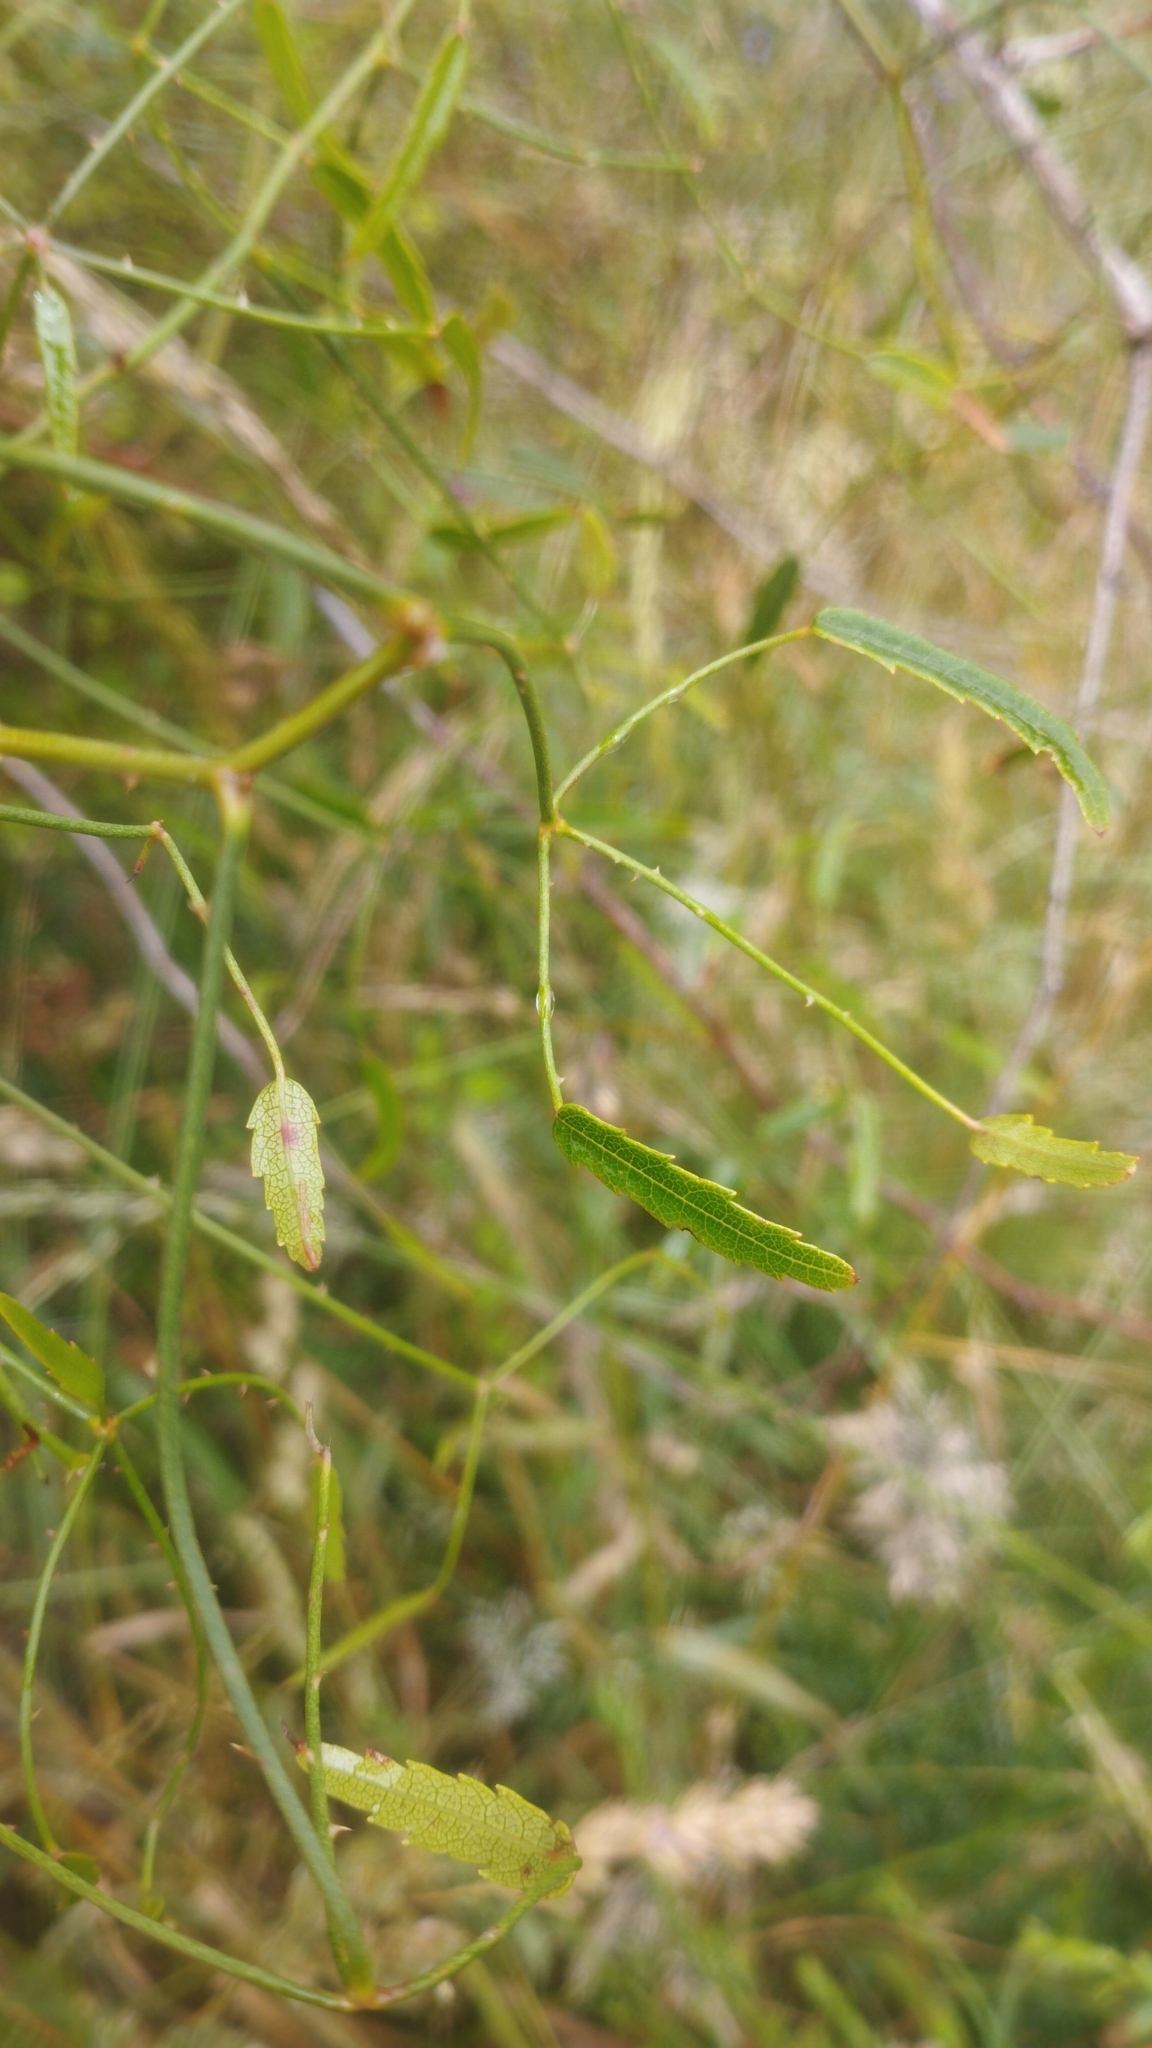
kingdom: Plantae
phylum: Tracheophyta
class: Magnoliopsida
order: Rosales
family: Rosaceae
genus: Rubus
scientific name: Rubus
